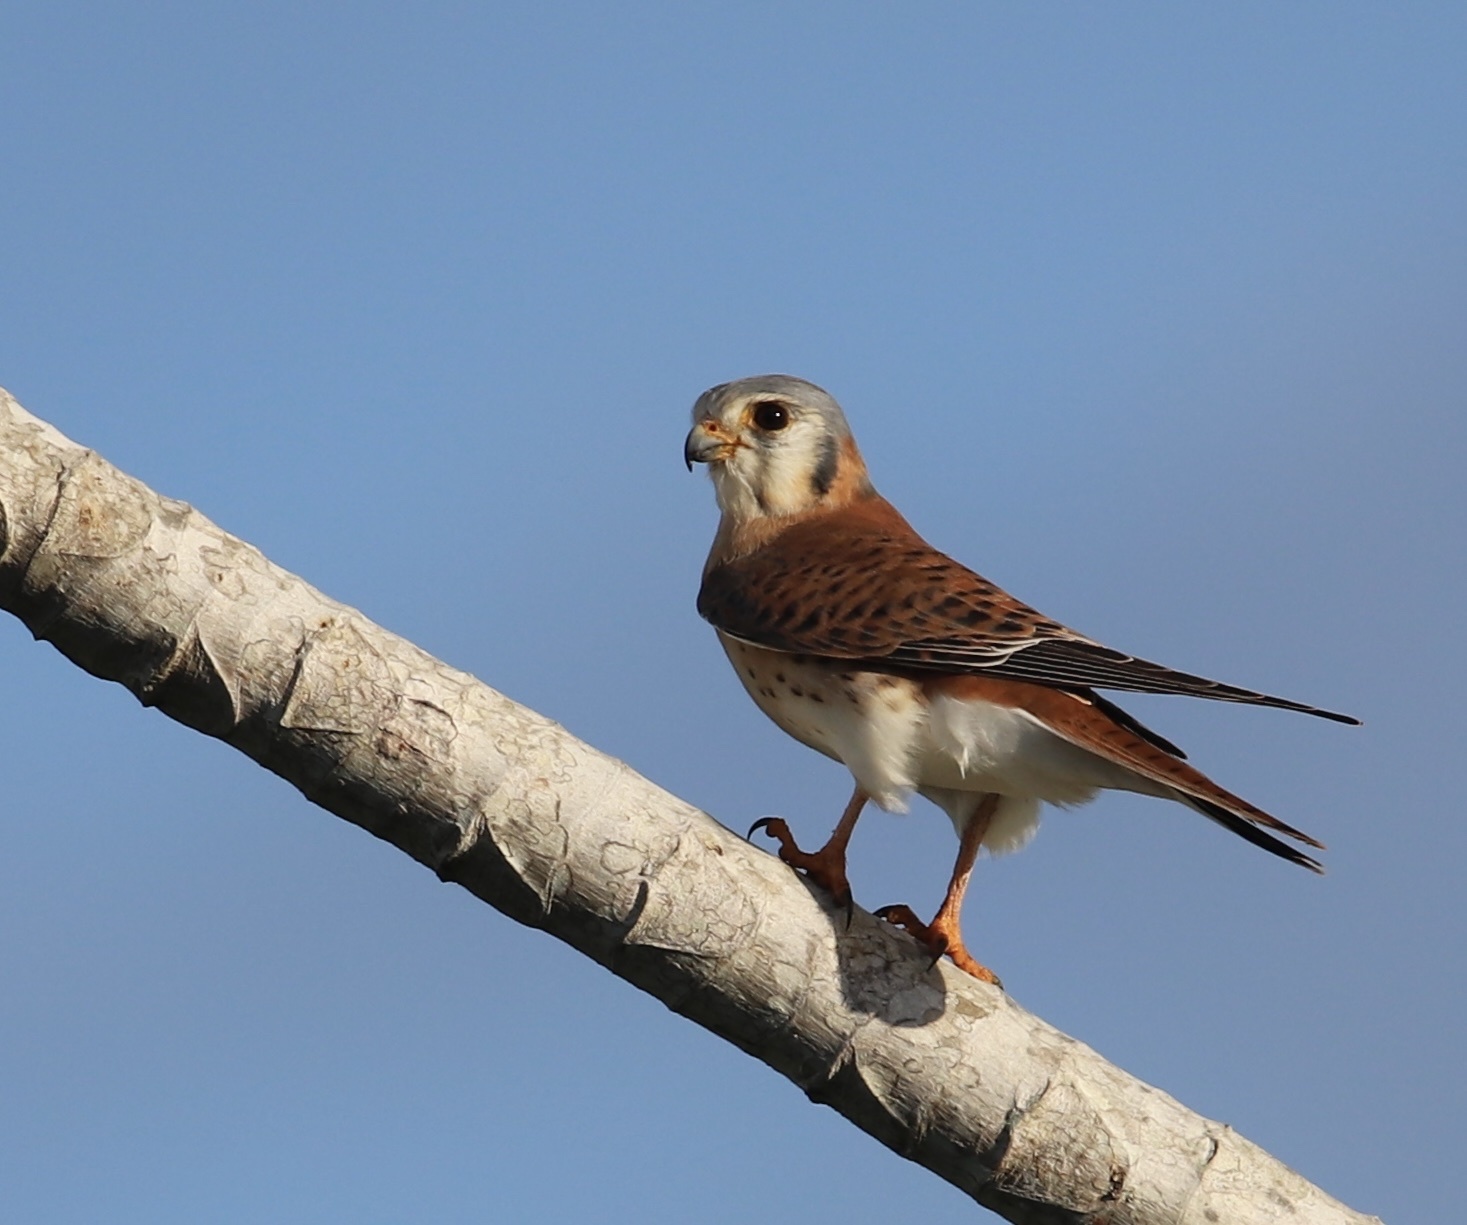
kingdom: Animalia
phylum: Chordata
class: Aves
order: Falconiformes
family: Falconidae
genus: Falco
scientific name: Falco sparverius
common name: American kestrel
